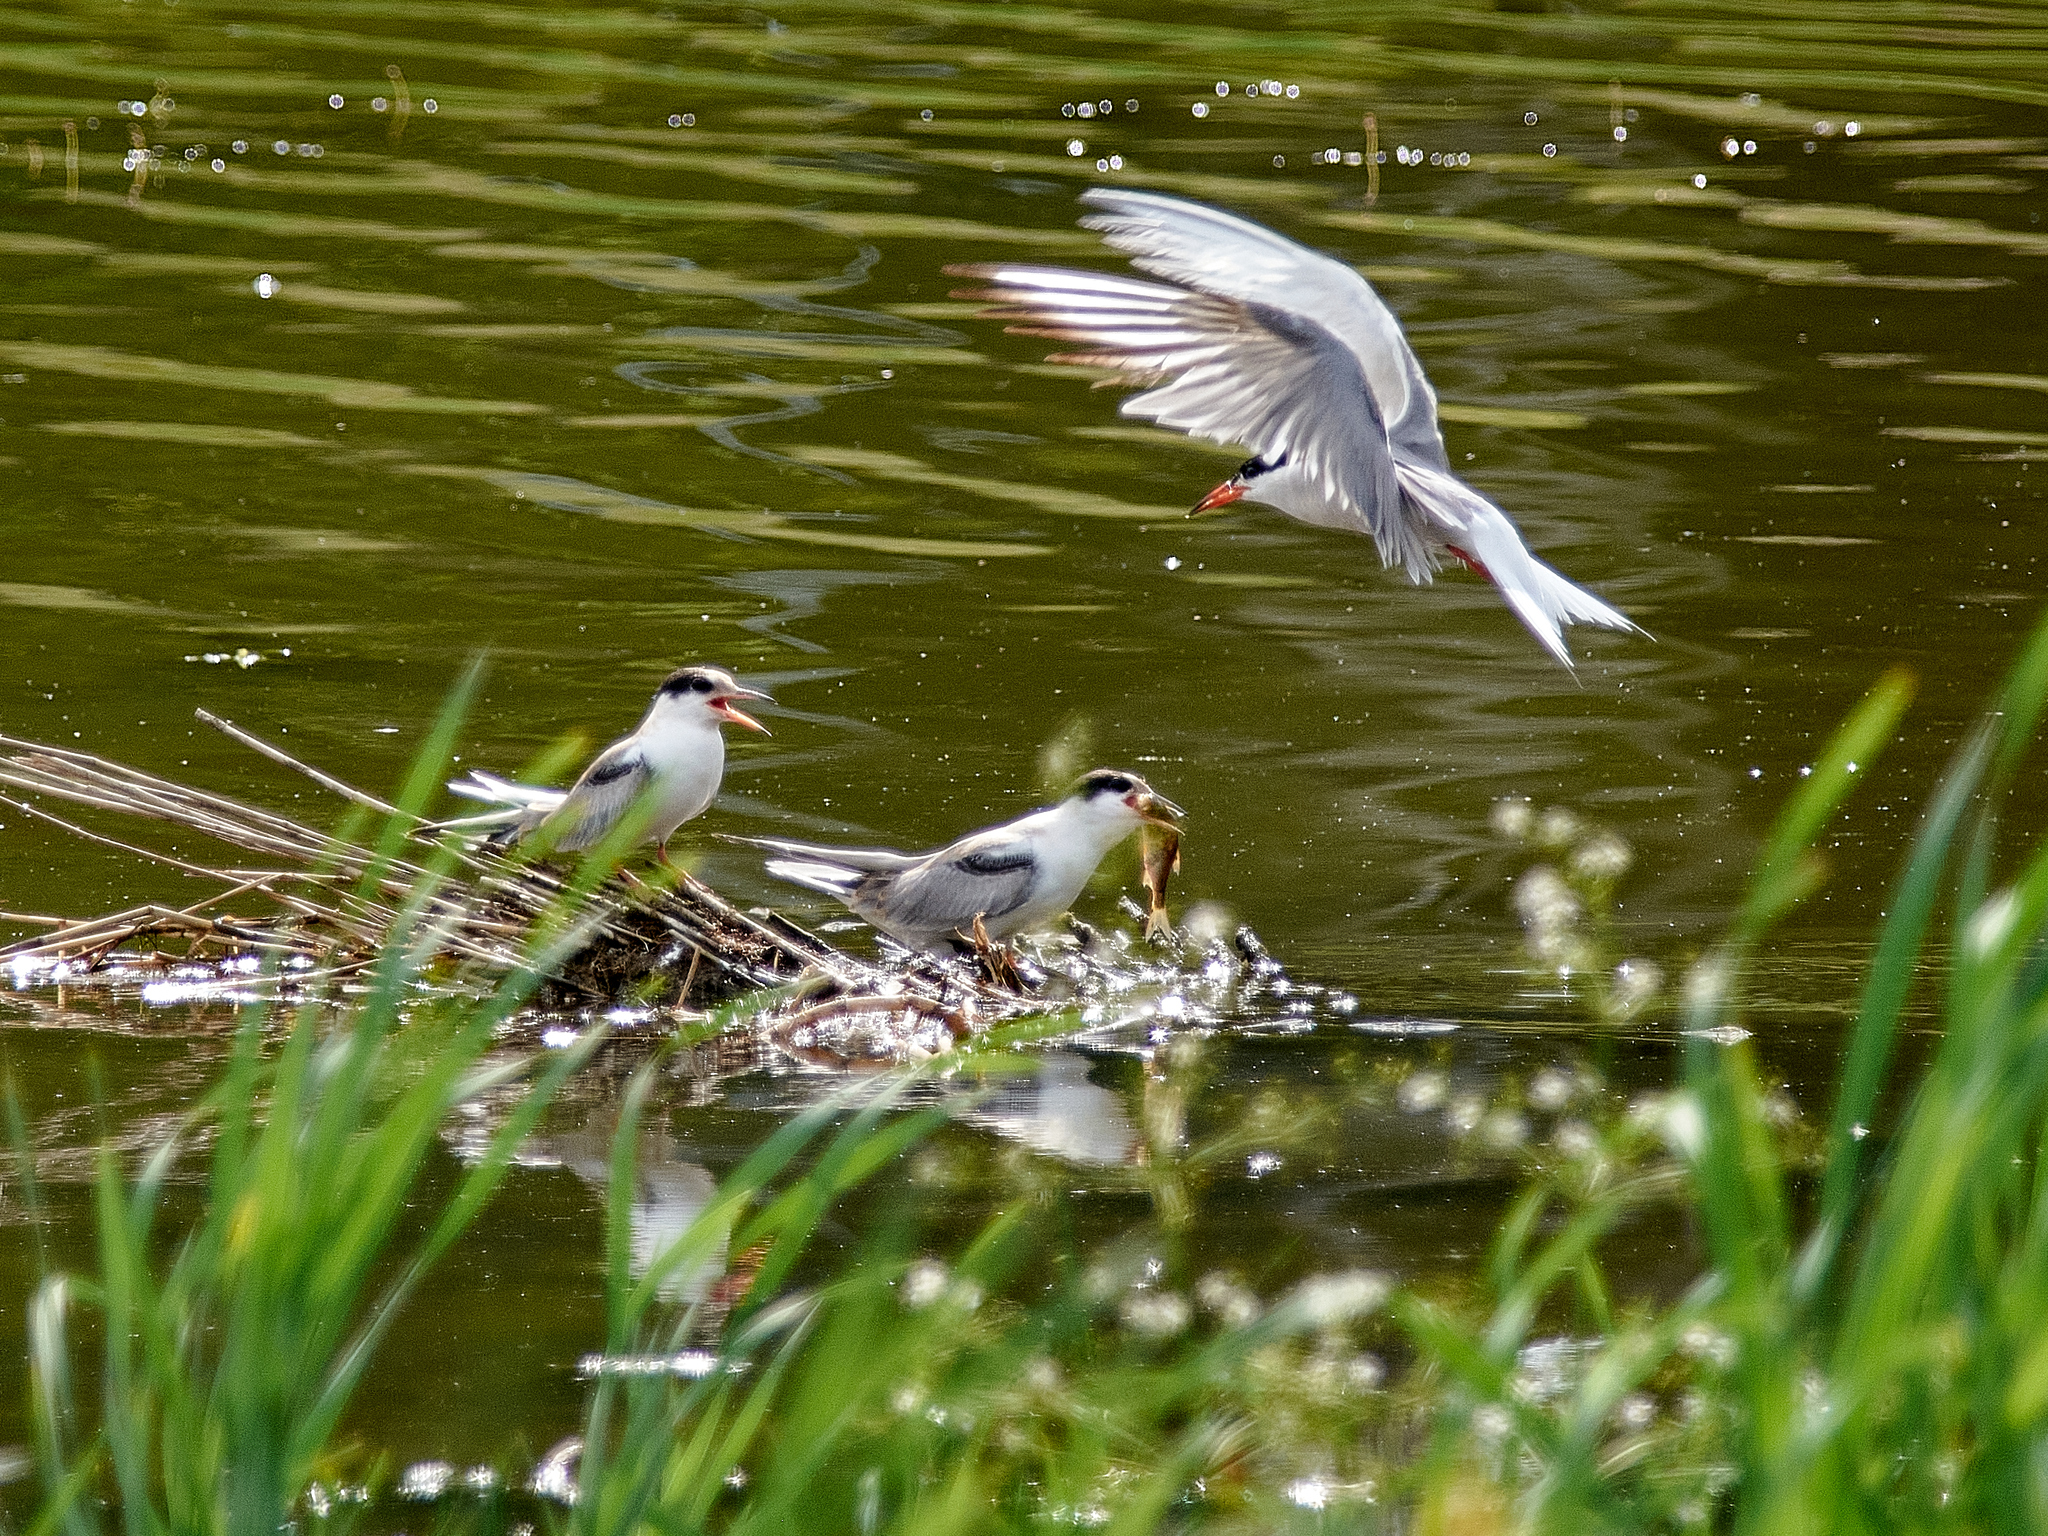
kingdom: Animalia
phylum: Chordata
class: Aves
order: Charadriiformes
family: Laridae
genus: Sterna
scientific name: Sterna hirundo
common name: Common tern
